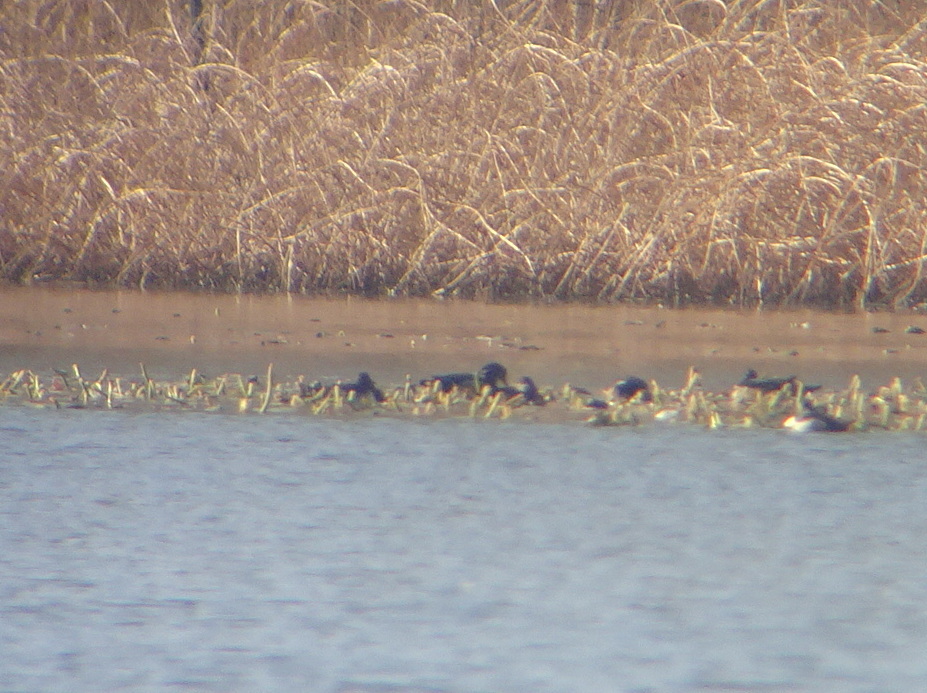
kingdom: Animalia
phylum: Chordata
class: Aves
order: Anseriformes
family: Anatidae
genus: Aix
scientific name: Aix sponsa
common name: Wood duck
